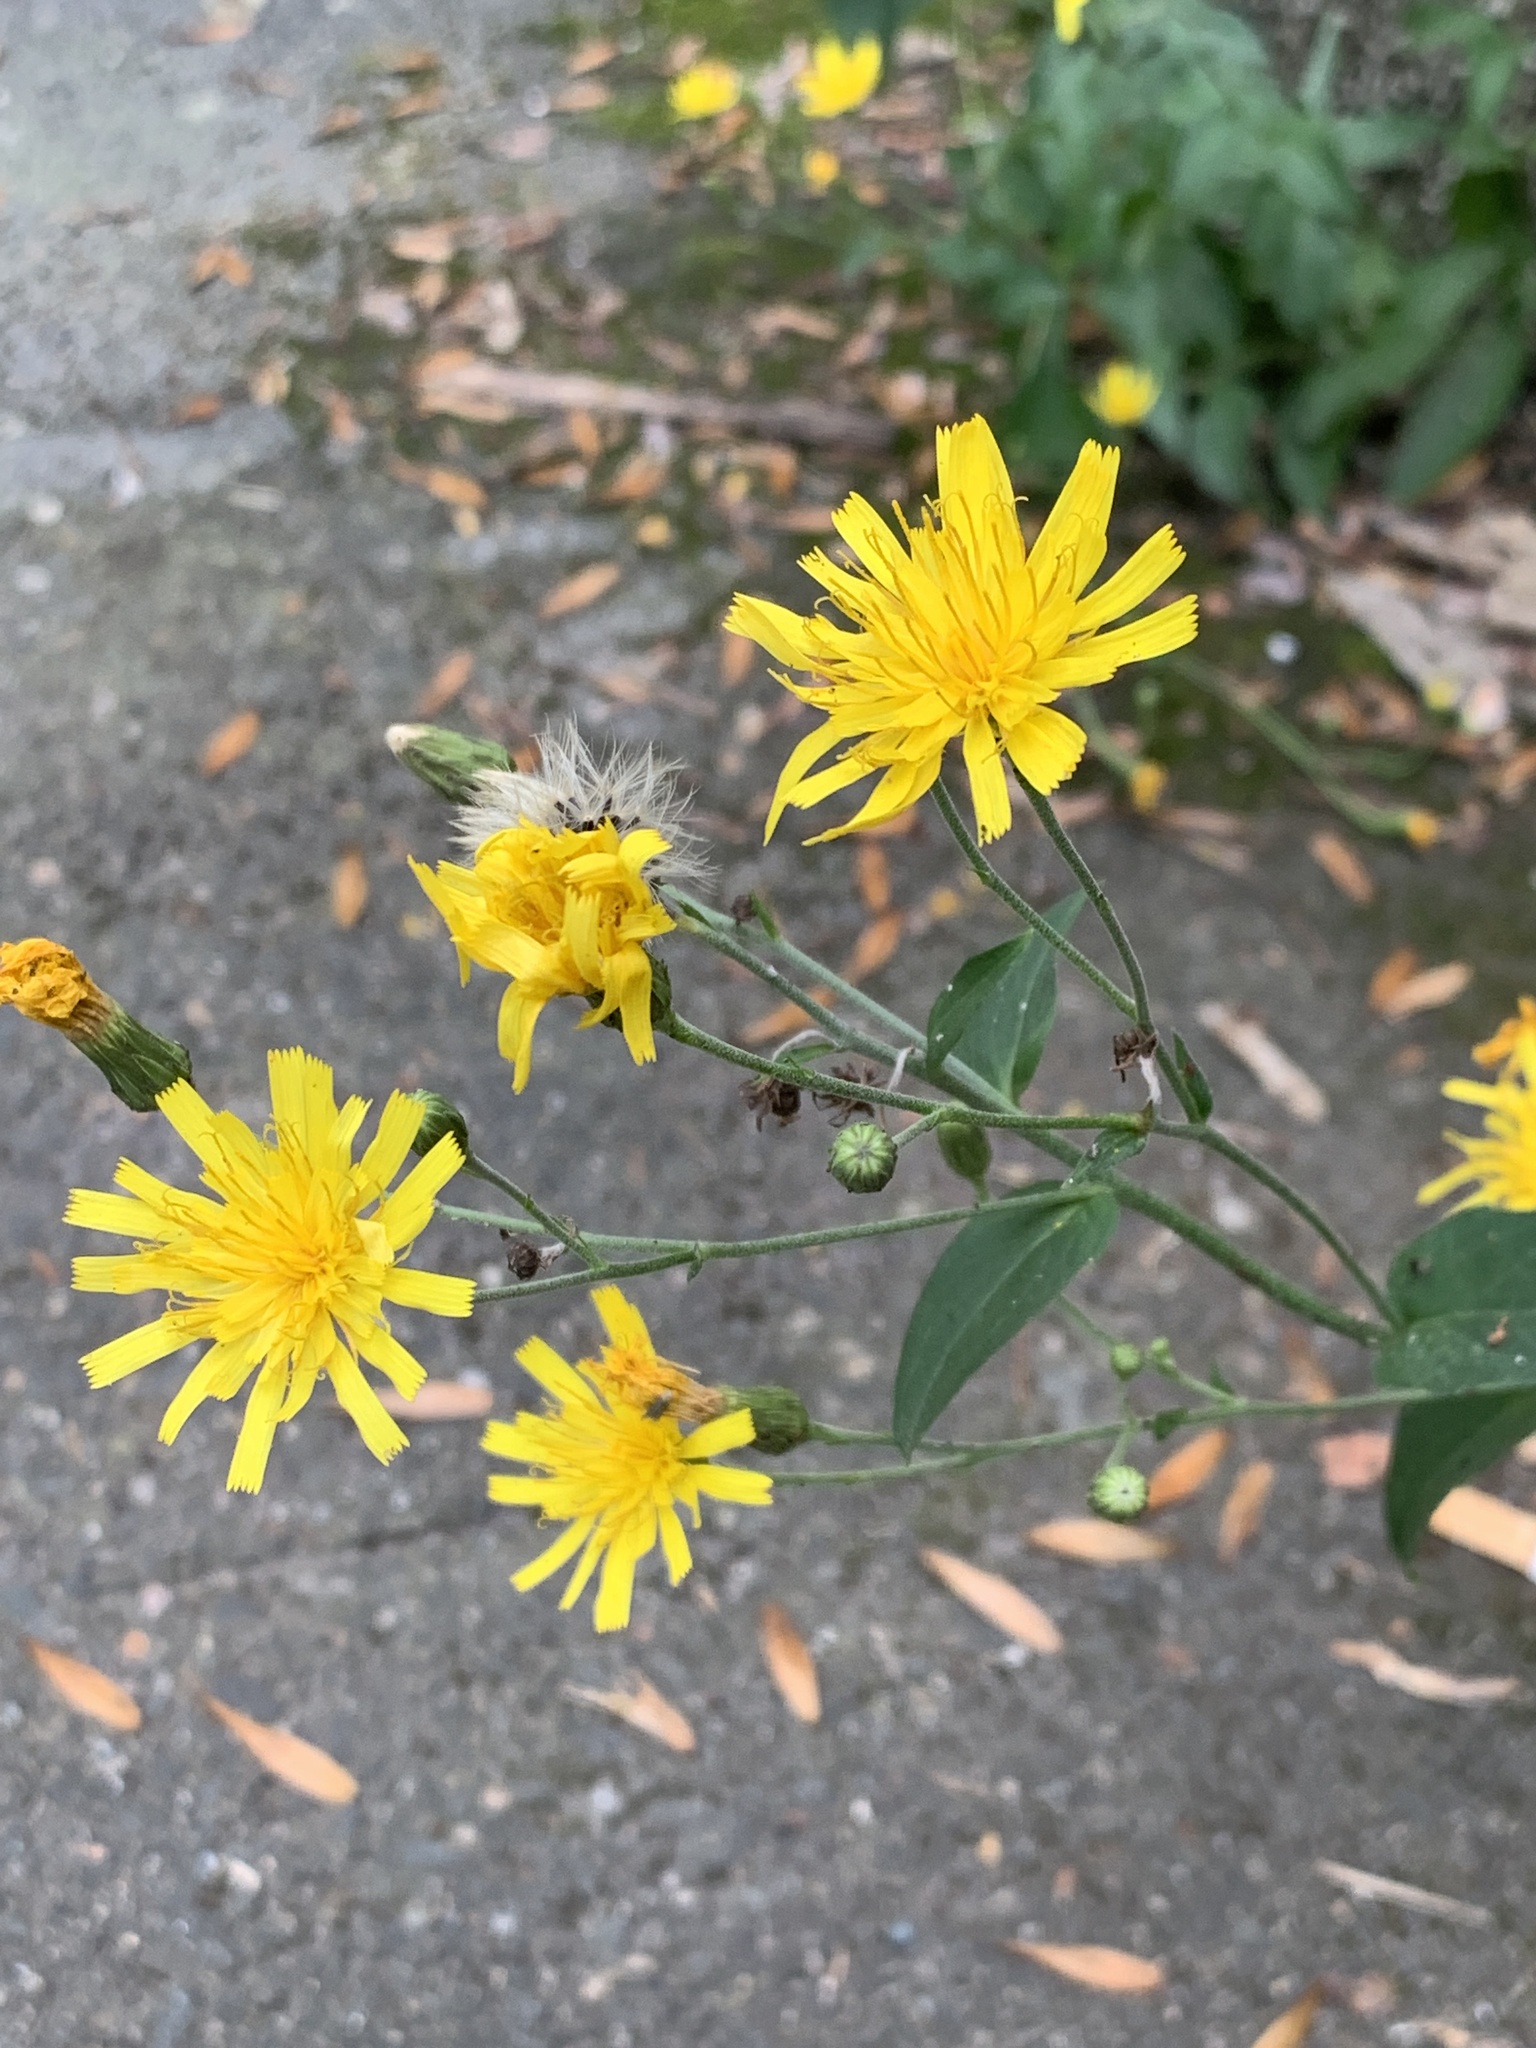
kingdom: Plantae
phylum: Tracheophyta
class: Magnoliopsida
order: Asterales
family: Asteraceae
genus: Hieracium
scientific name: Hieracium sabaudum
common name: New england hawkweed
